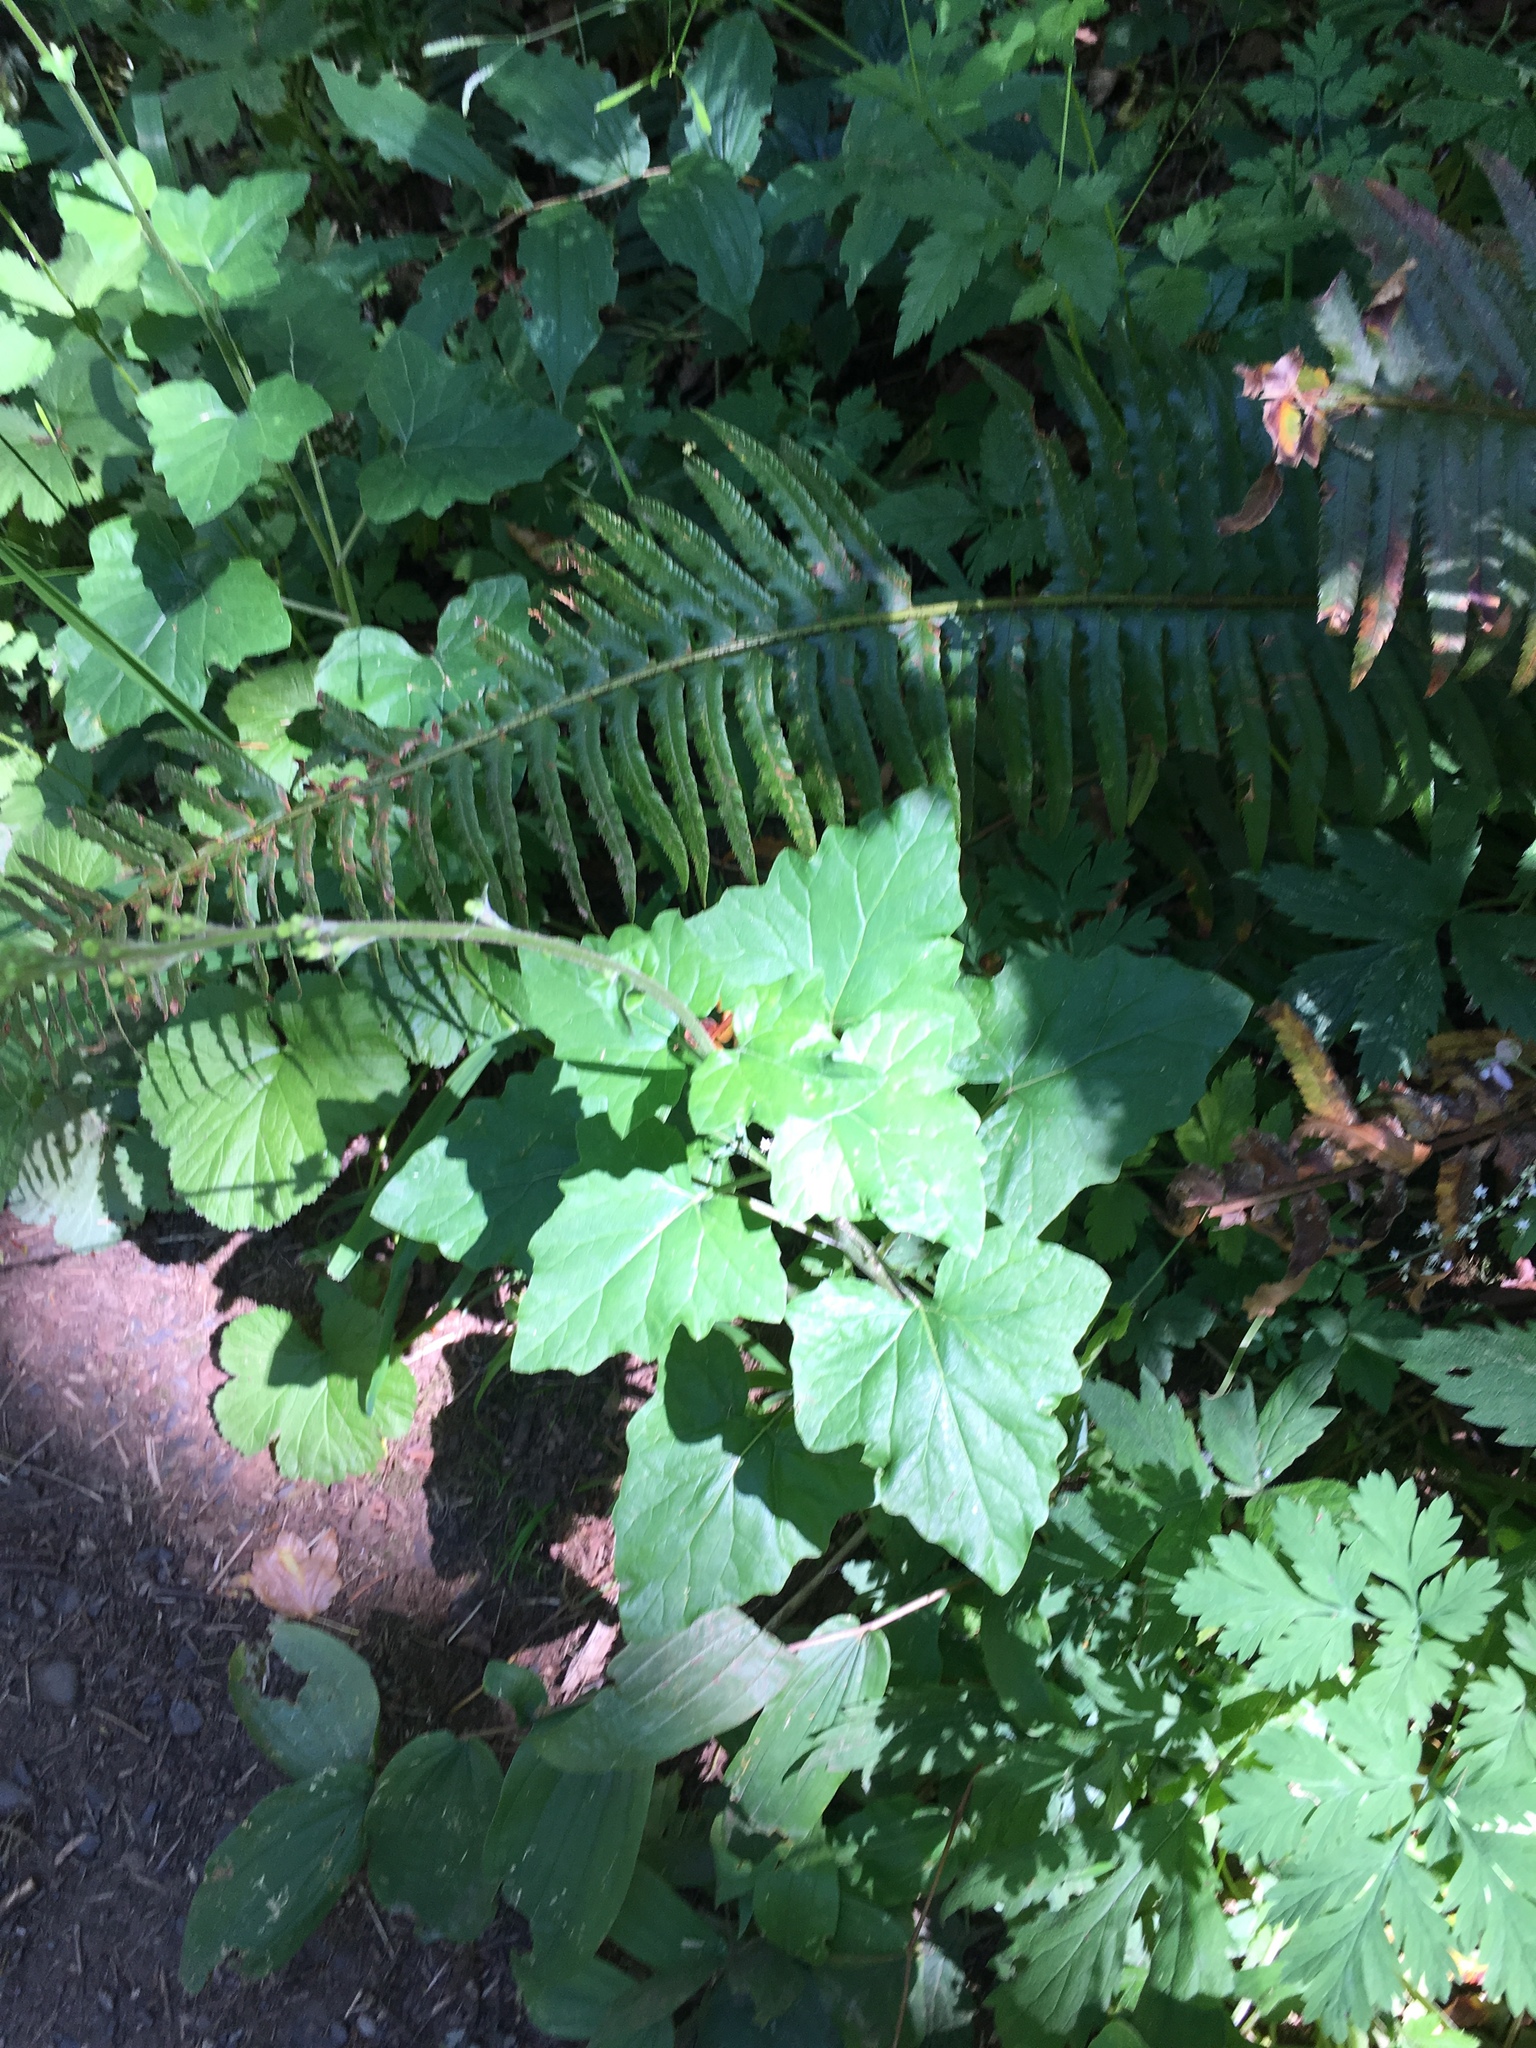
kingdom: Plantae
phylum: Tracheophyta
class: Magnoliopsida
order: Asterales
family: Asteraceae
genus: Adenocaulon
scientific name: Adenocaulon bicolor
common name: Trailplant
